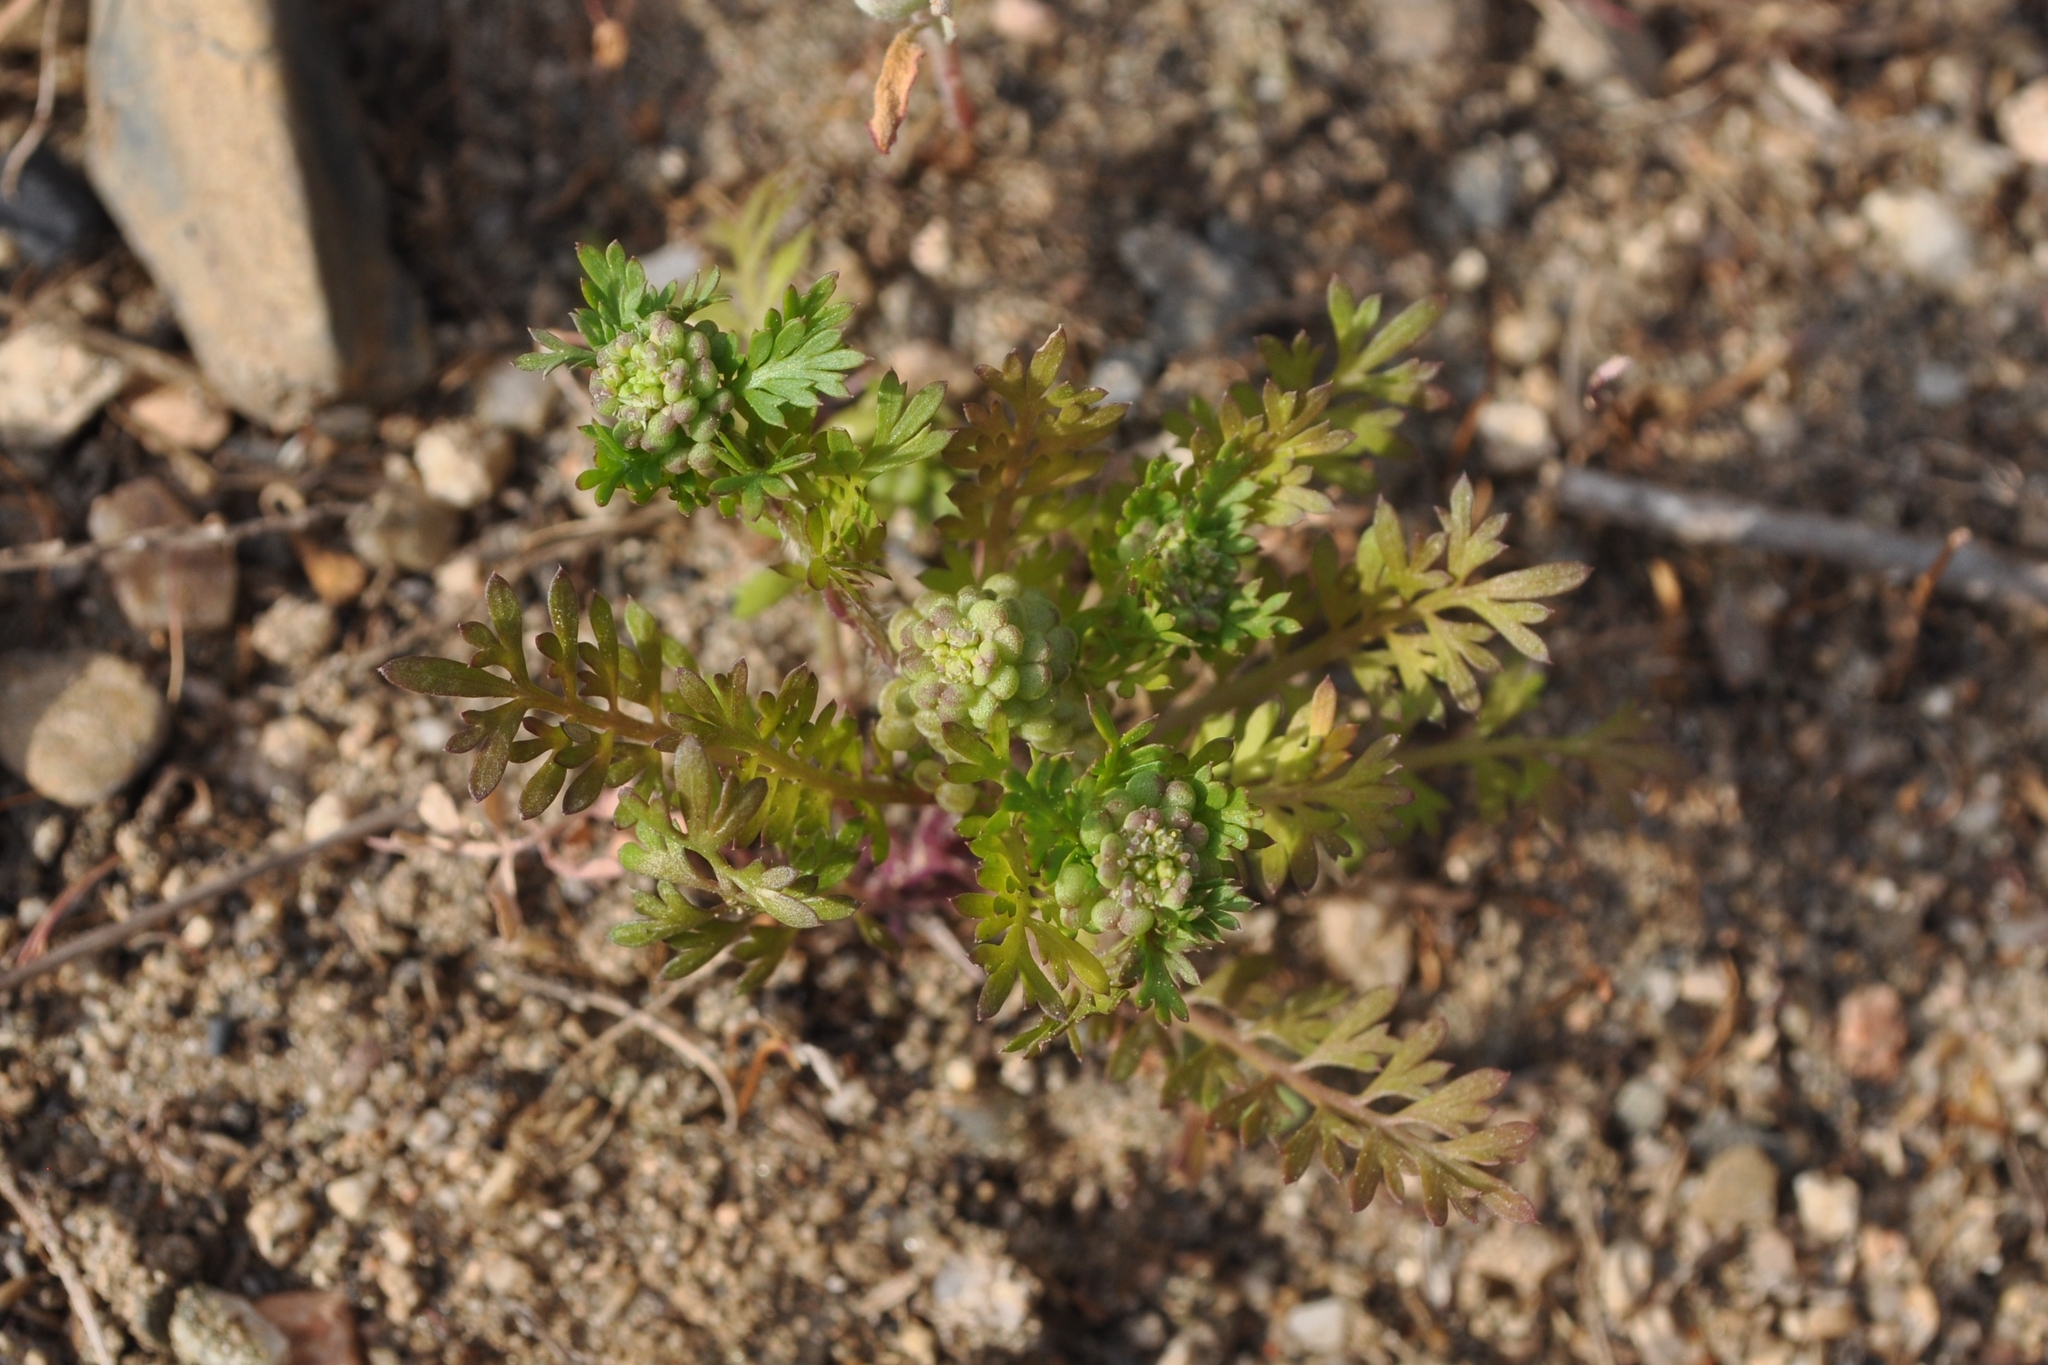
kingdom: Plantae
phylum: Tracheophyta
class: Magnoliopsida
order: Brassicales
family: Brassicaceae
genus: Lepidium
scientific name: Lepidium didymum
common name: Lesser swinecress
